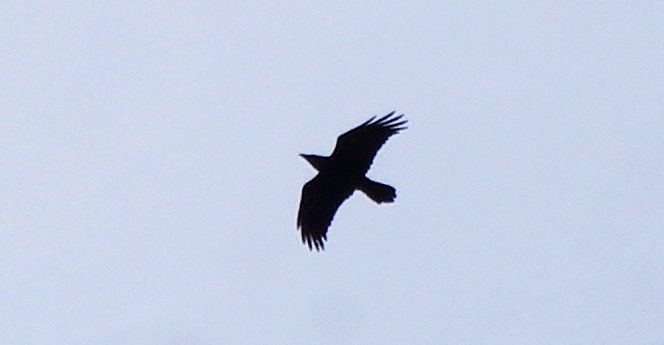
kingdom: Animalia
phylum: Chordata
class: Aves
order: Passeriformes
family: Corvidae
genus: Corvus
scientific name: Corvus corax
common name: Common raven
